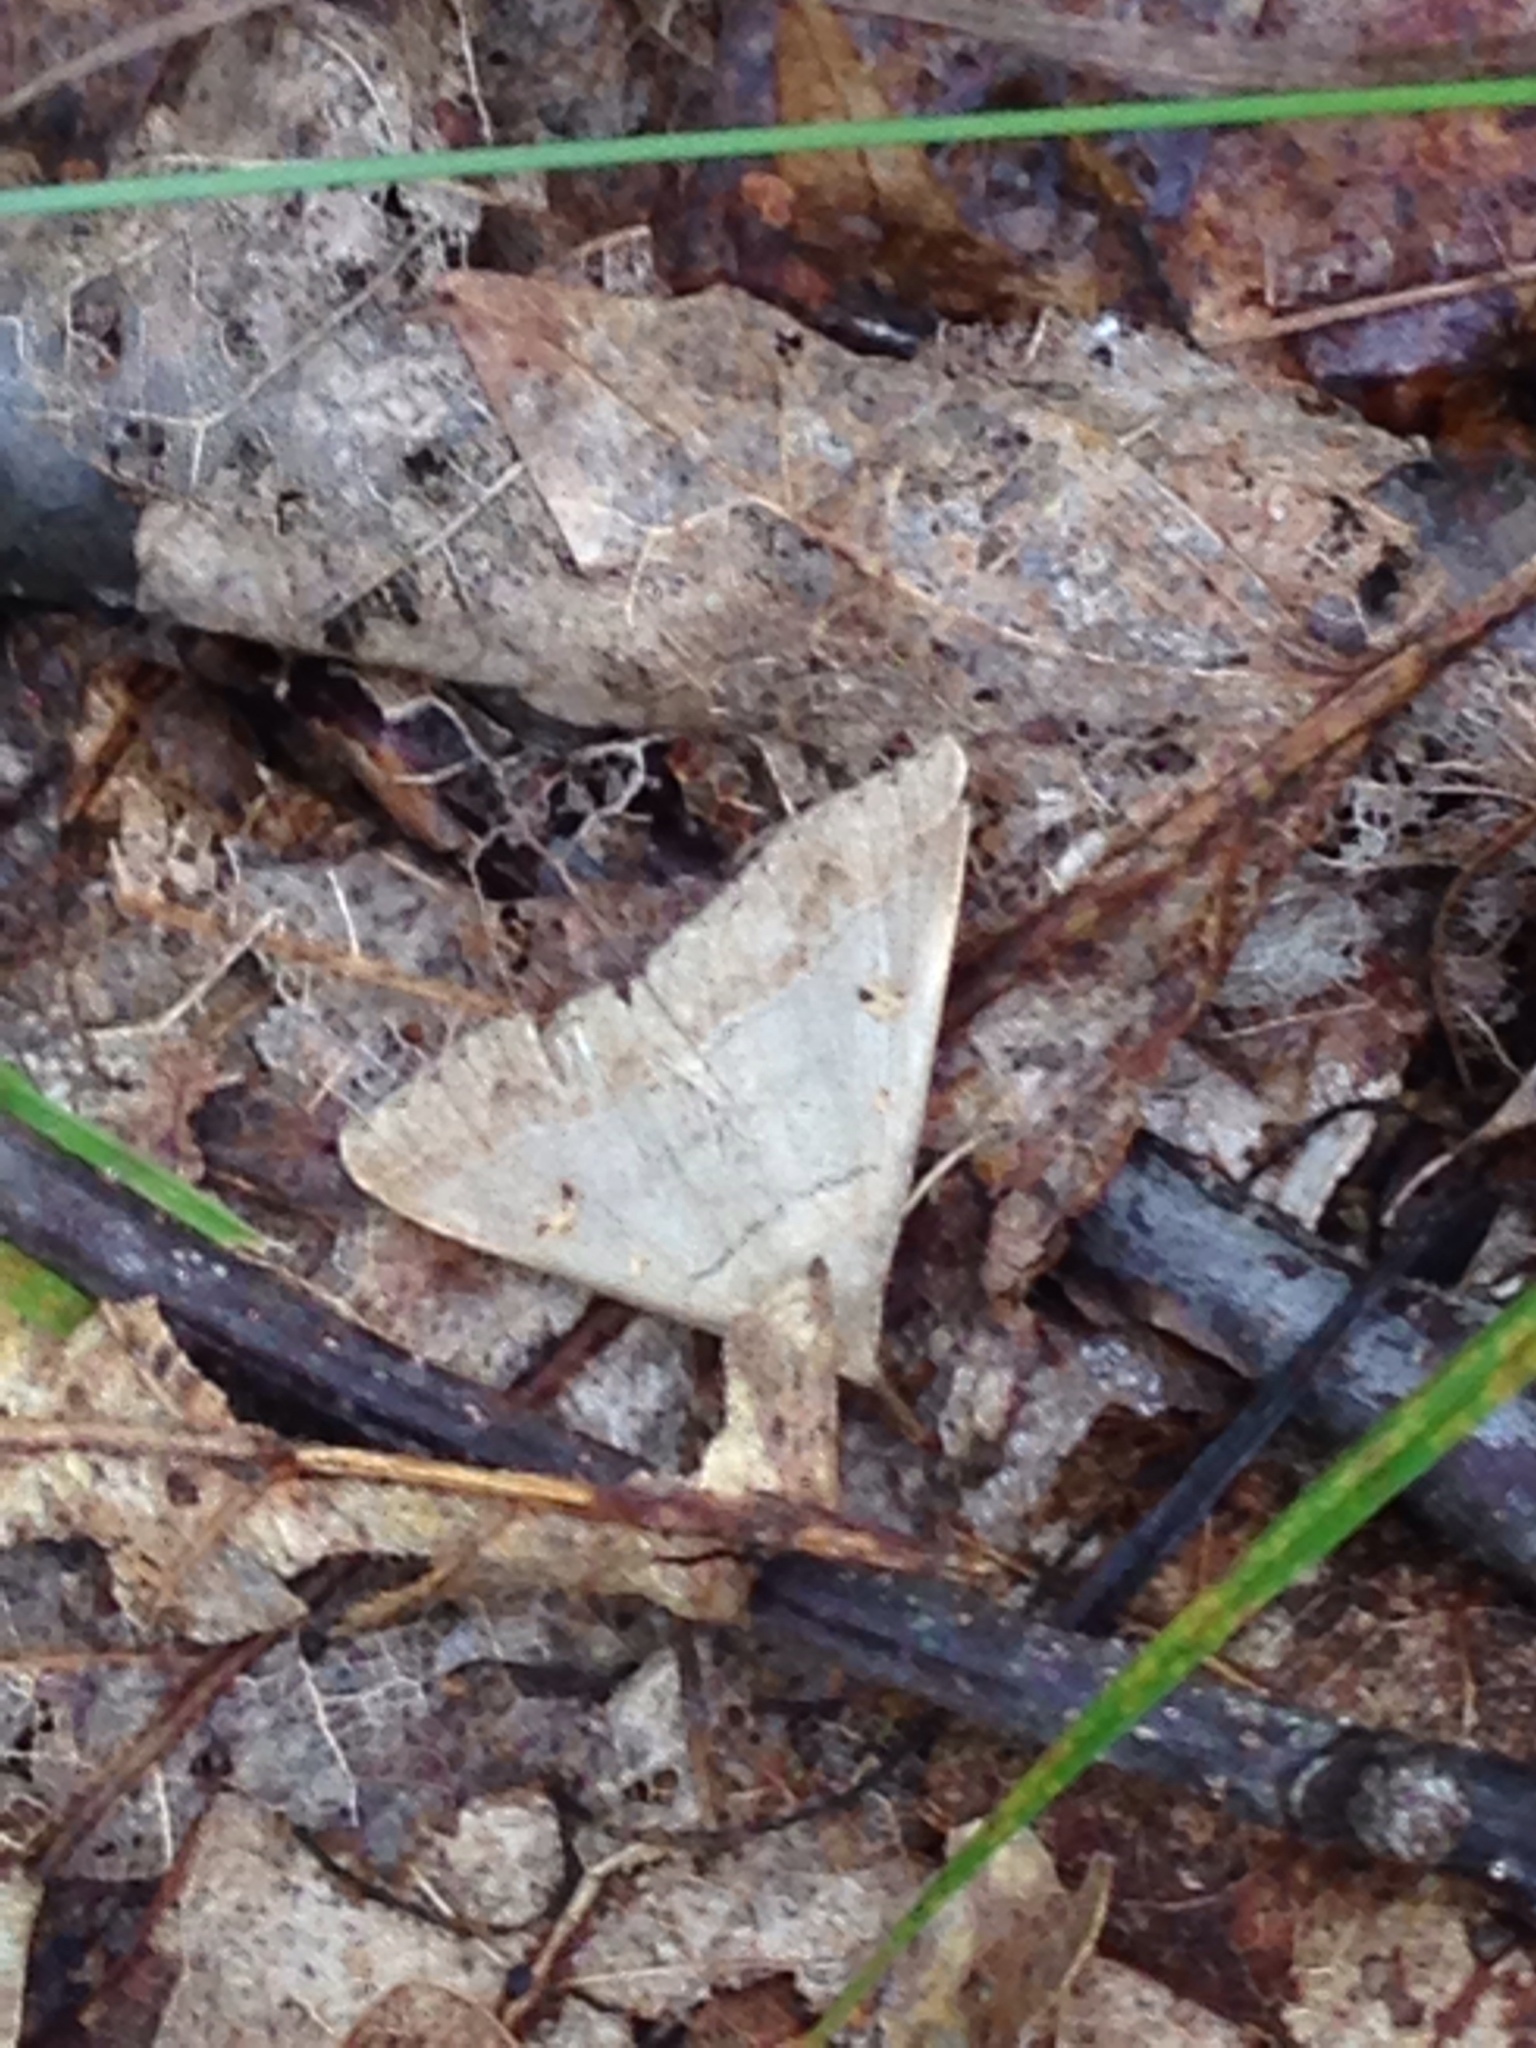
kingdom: Animalia
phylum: Arthropoda
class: Insecta
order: Lepidoptera
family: Erebidae
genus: Renia
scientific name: Renia flavipunctalis
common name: Yellow-spotted renia moth
